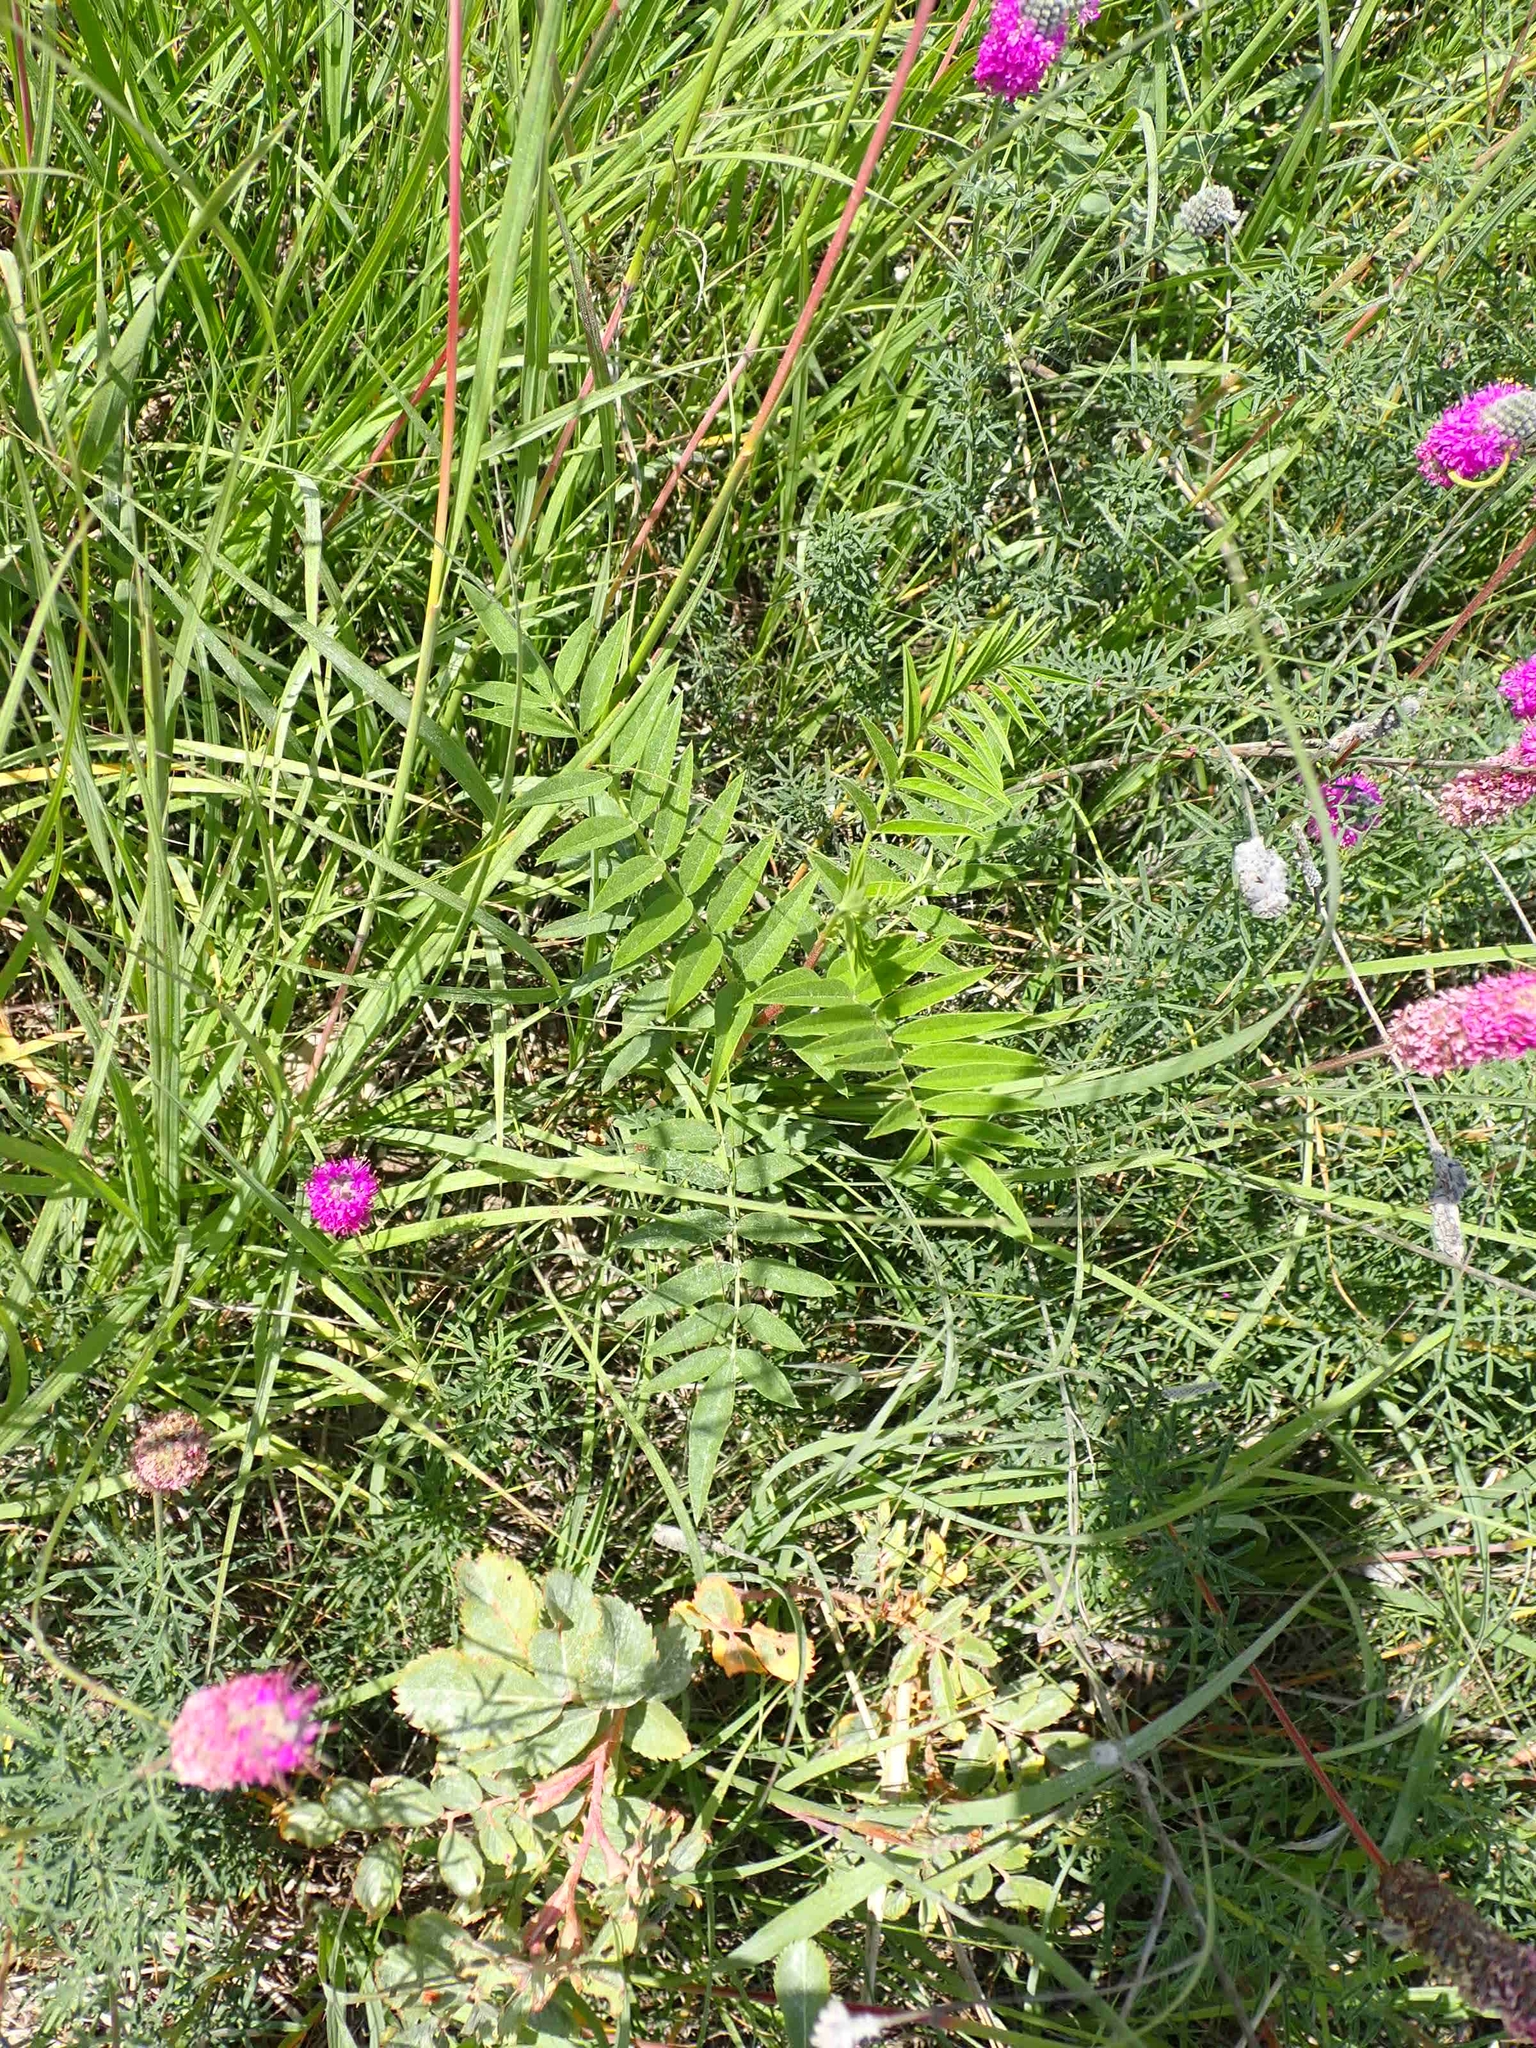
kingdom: Plantae
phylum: Tracheophyta
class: Magnoliopsida
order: Fabales
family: Fabaceae
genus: Glycyrrhiza
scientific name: Glycyrrhiza lepidota
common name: American liquorice
